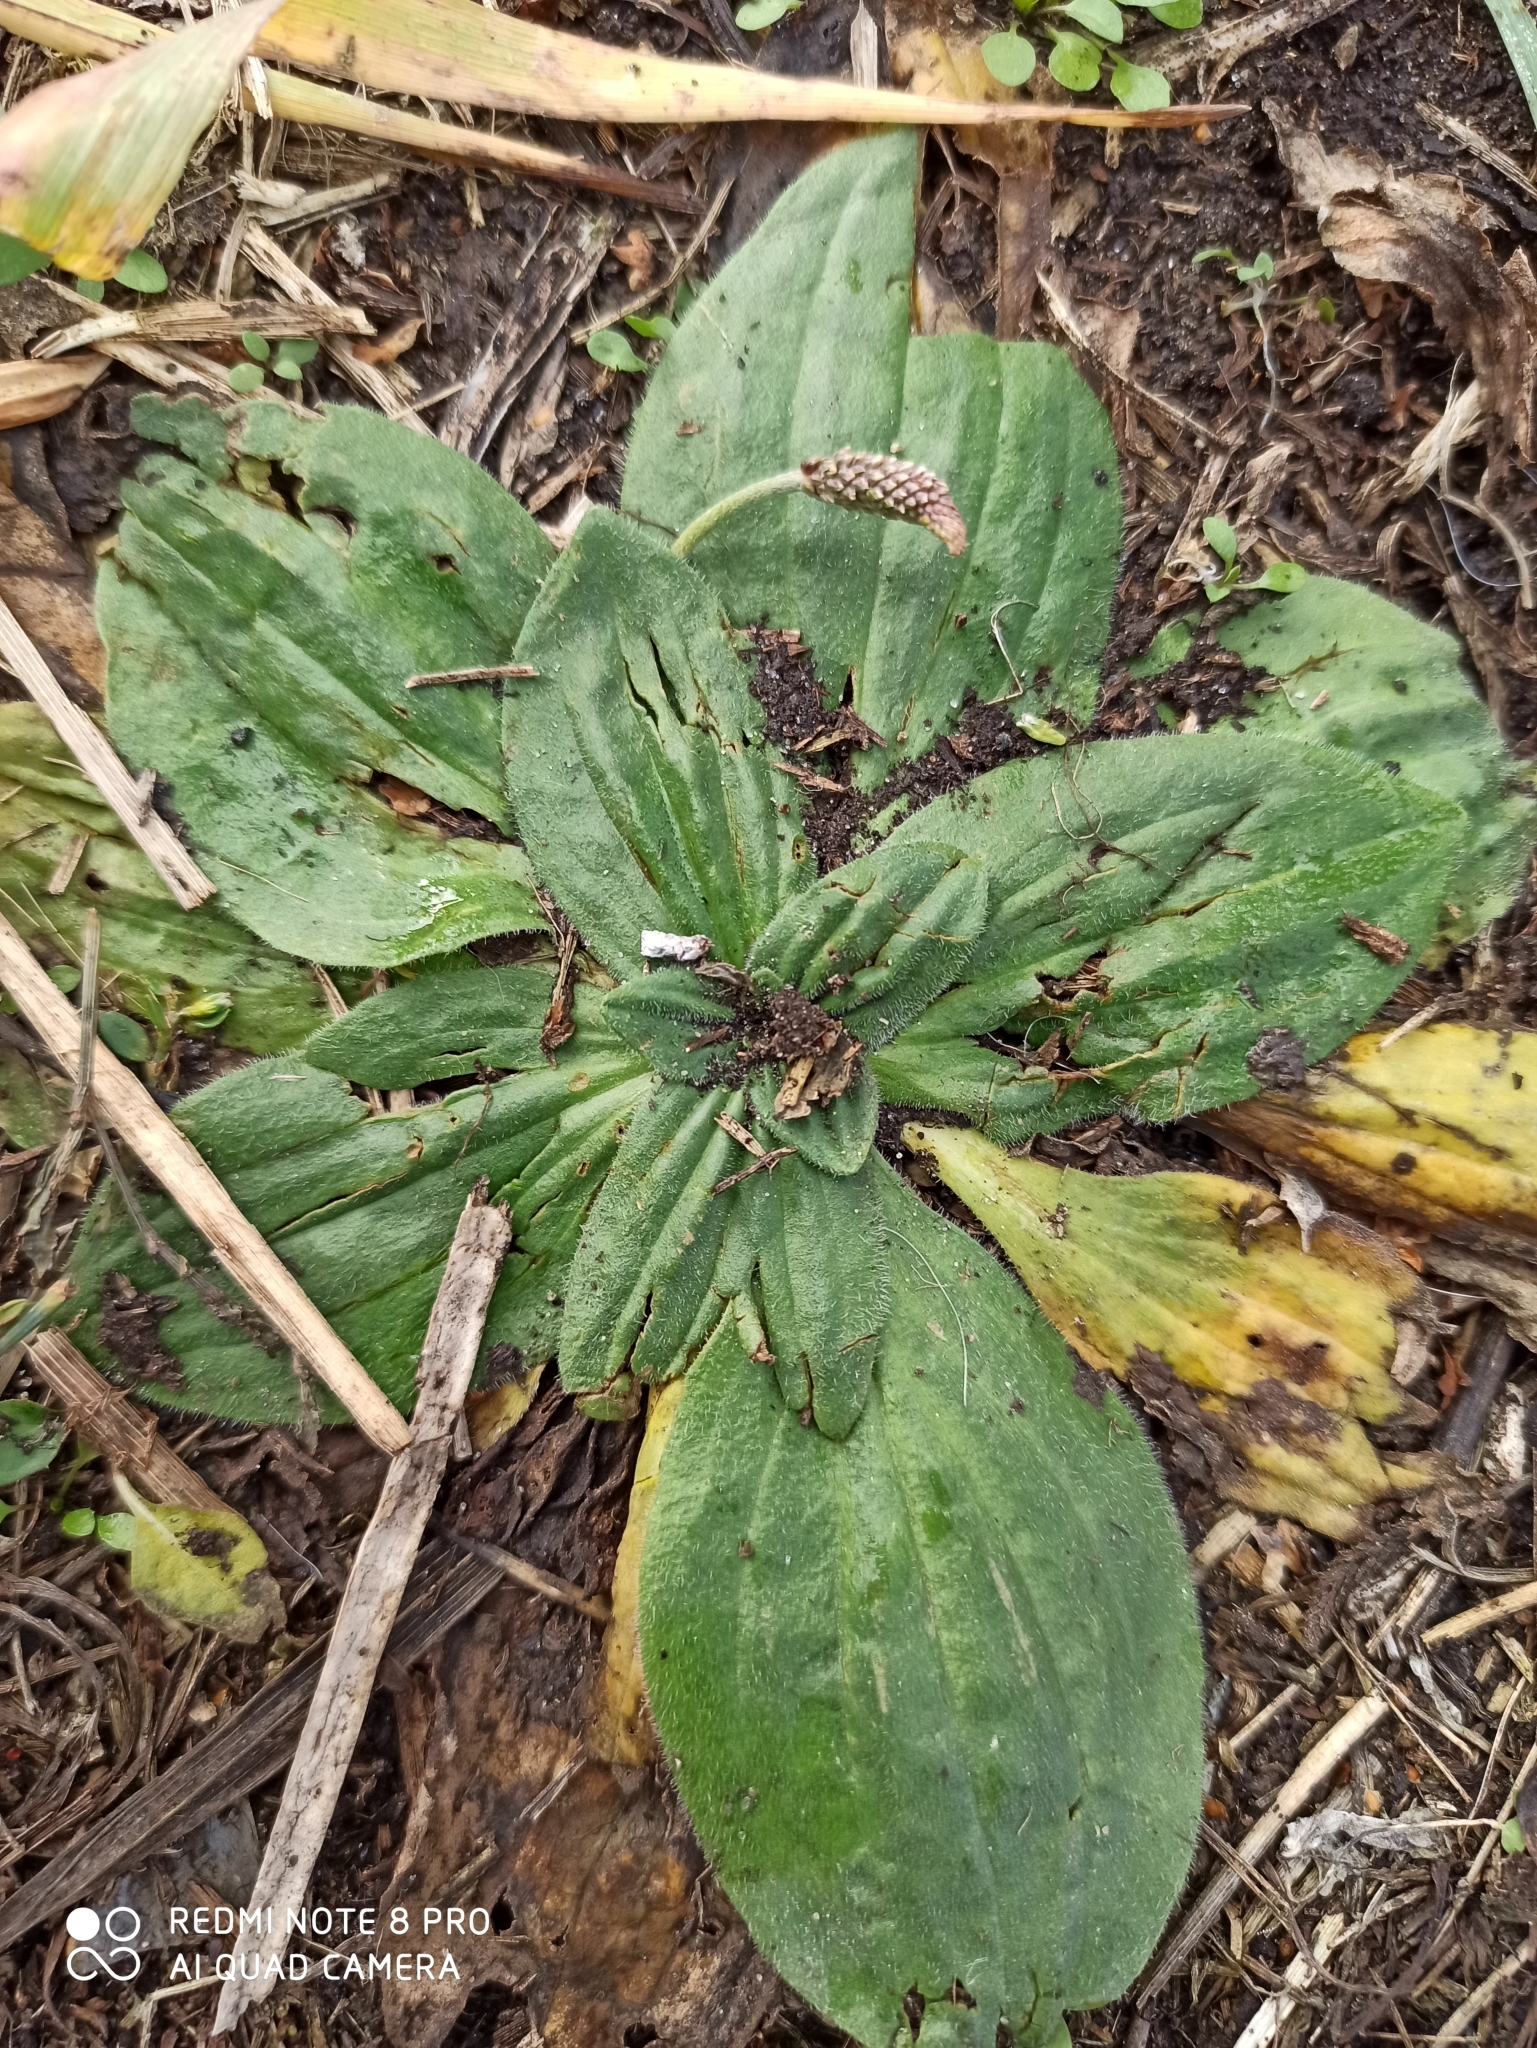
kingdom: Plantae
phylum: Tracheophyta
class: Magnoliopsida
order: Lamiales
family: Plantaginaceae
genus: Plantago
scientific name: Plantago media
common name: Hoary plantain
